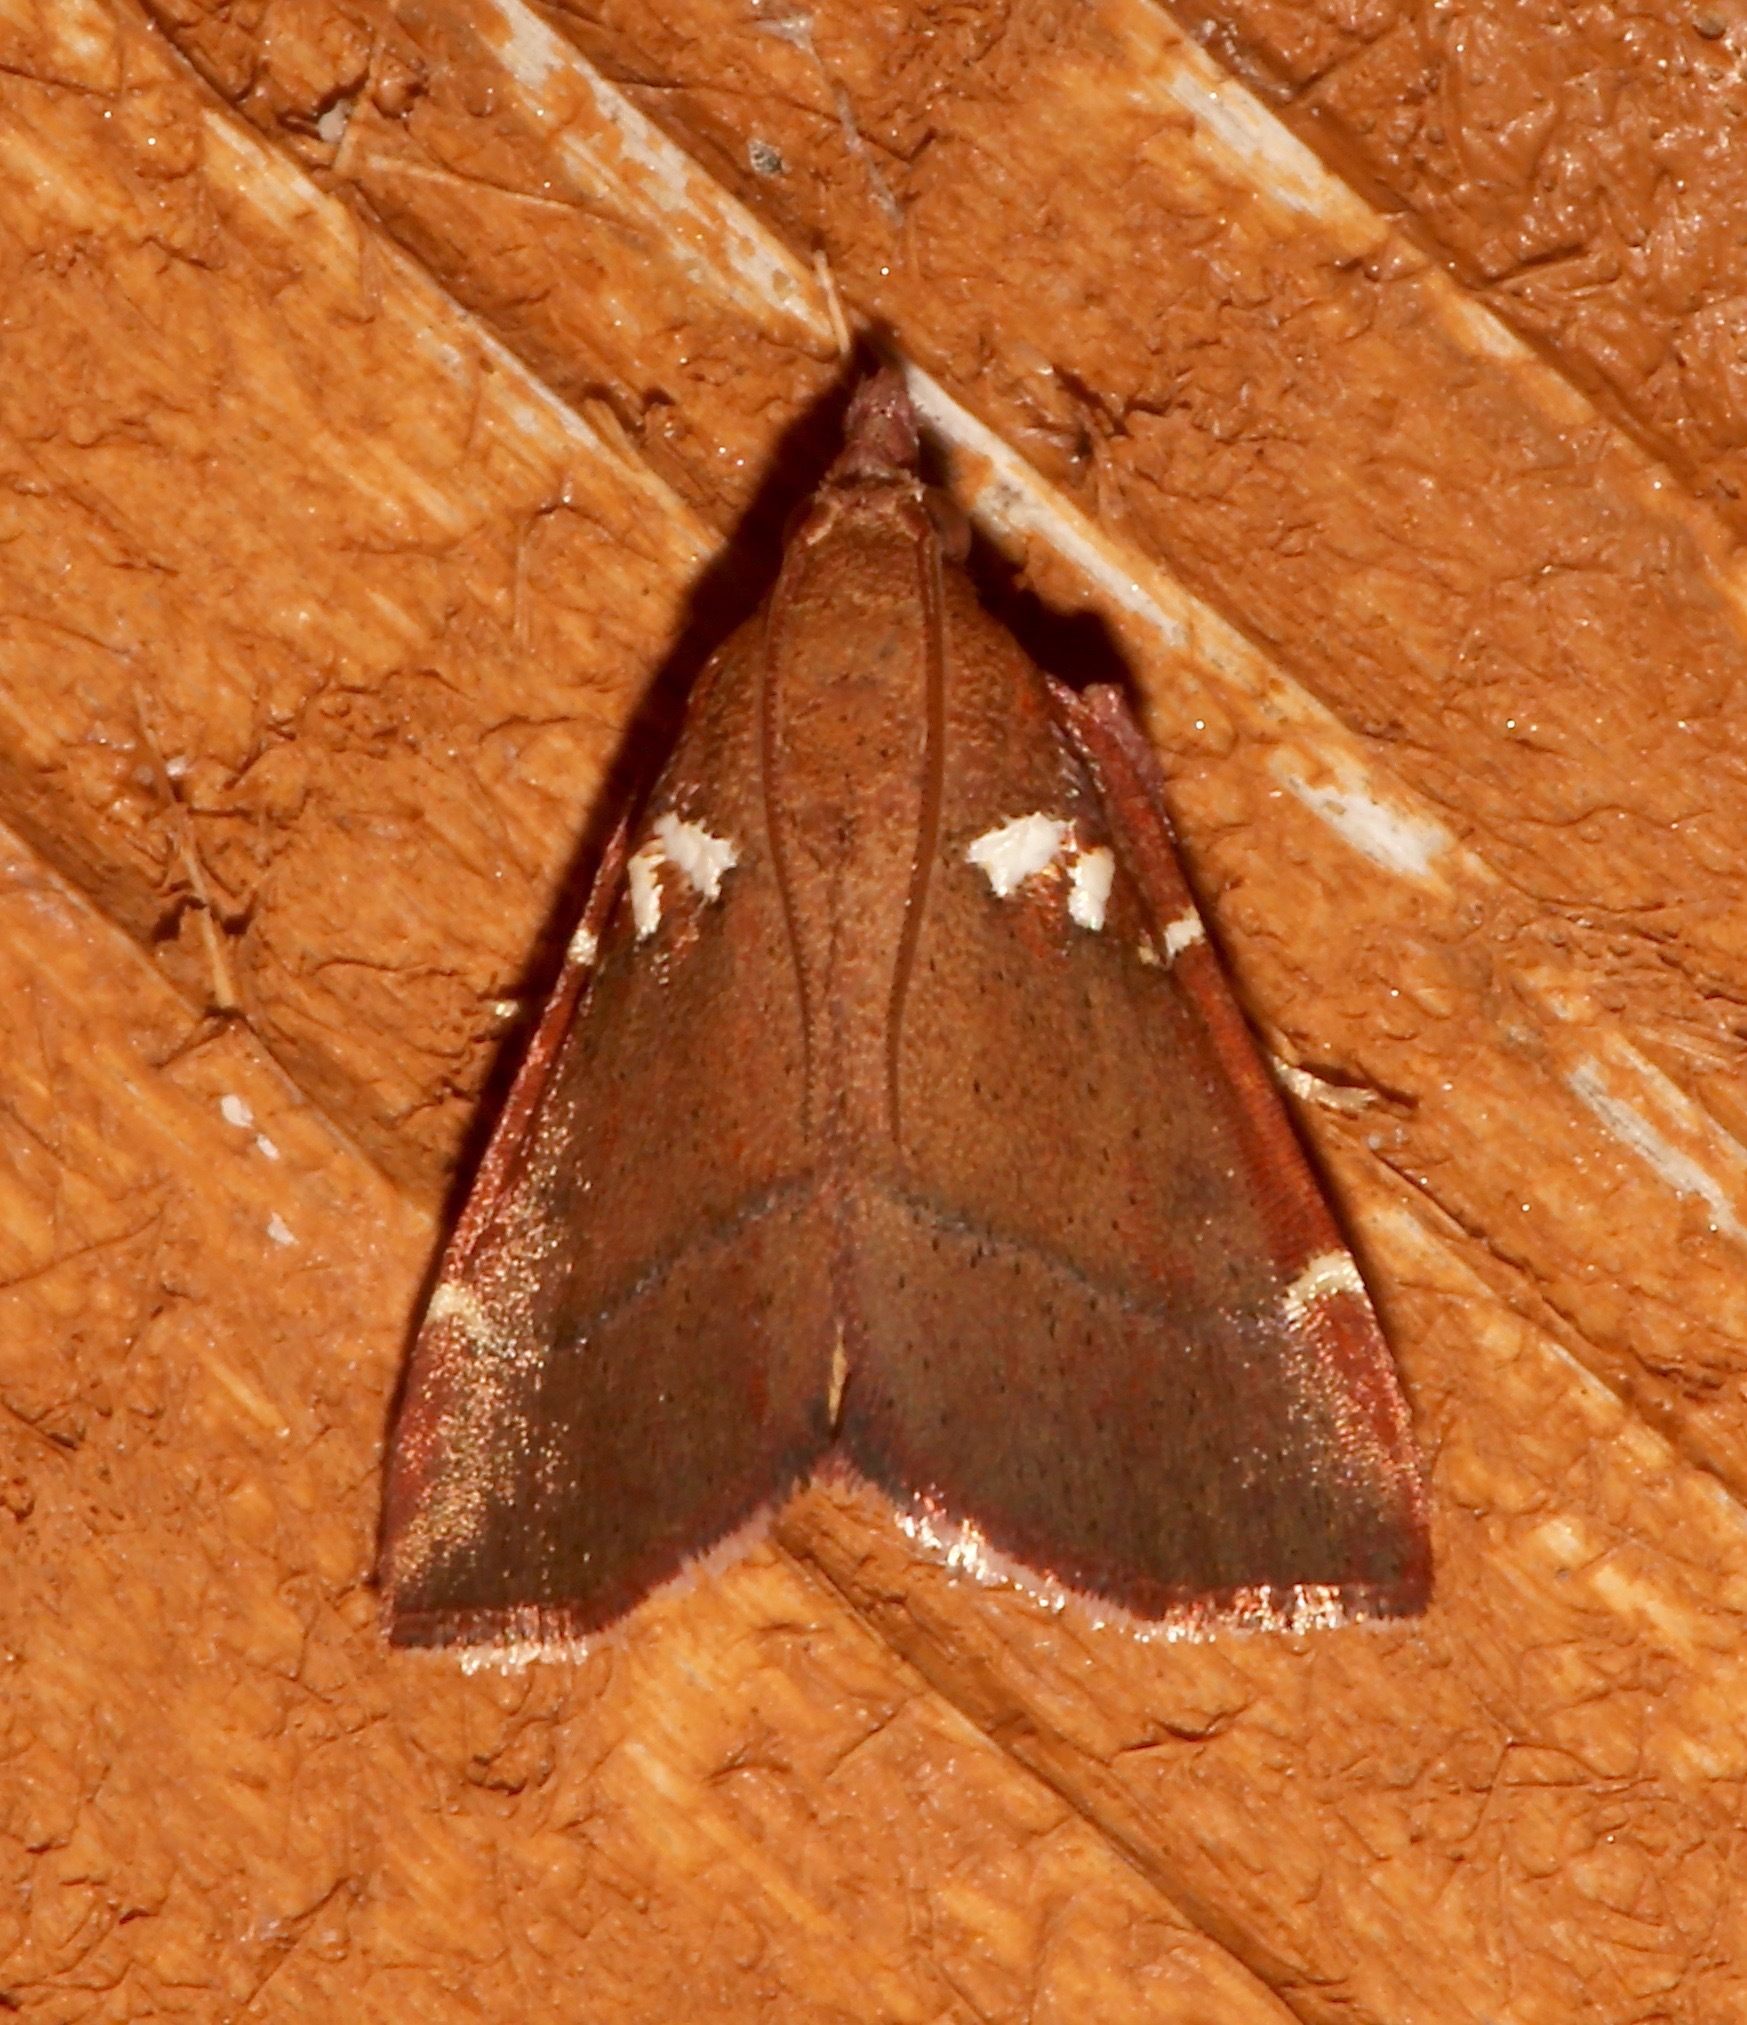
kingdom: Animalia
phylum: Arthropoda
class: Insecta
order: Lepidoptera
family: Pyralidae
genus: Lepidomys
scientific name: Lepidomys irrenosa
